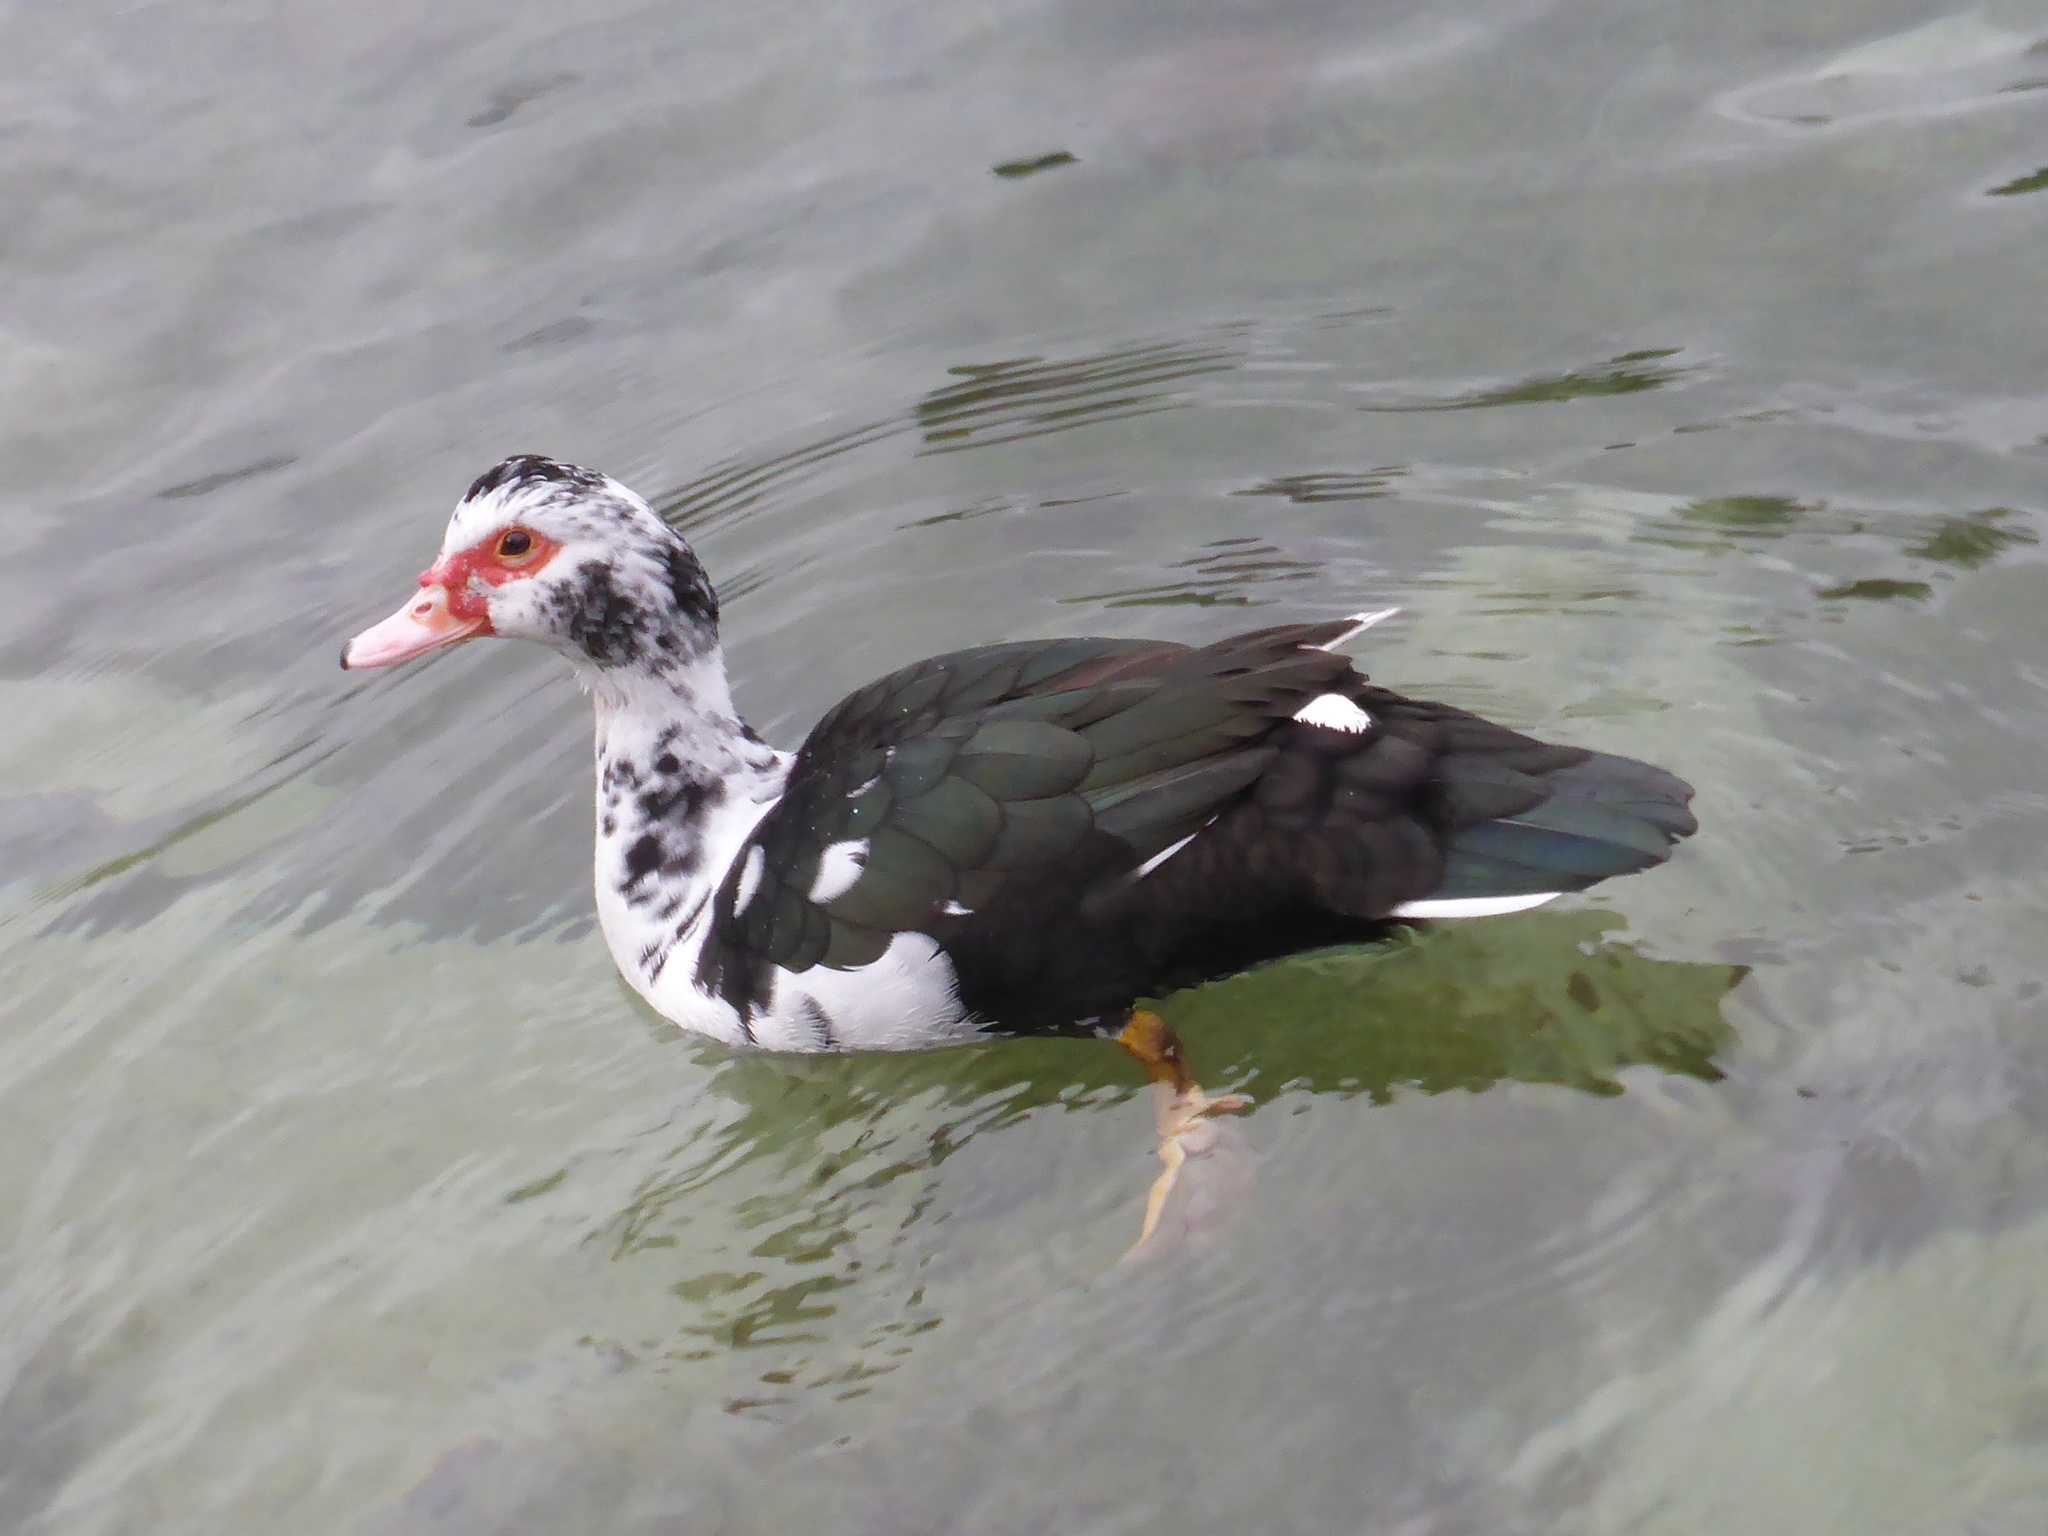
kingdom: Animalia
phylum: Chordata
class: Aves
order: Anseriformes
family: Anatidae
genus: Cairina
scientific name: Cairina moschata
